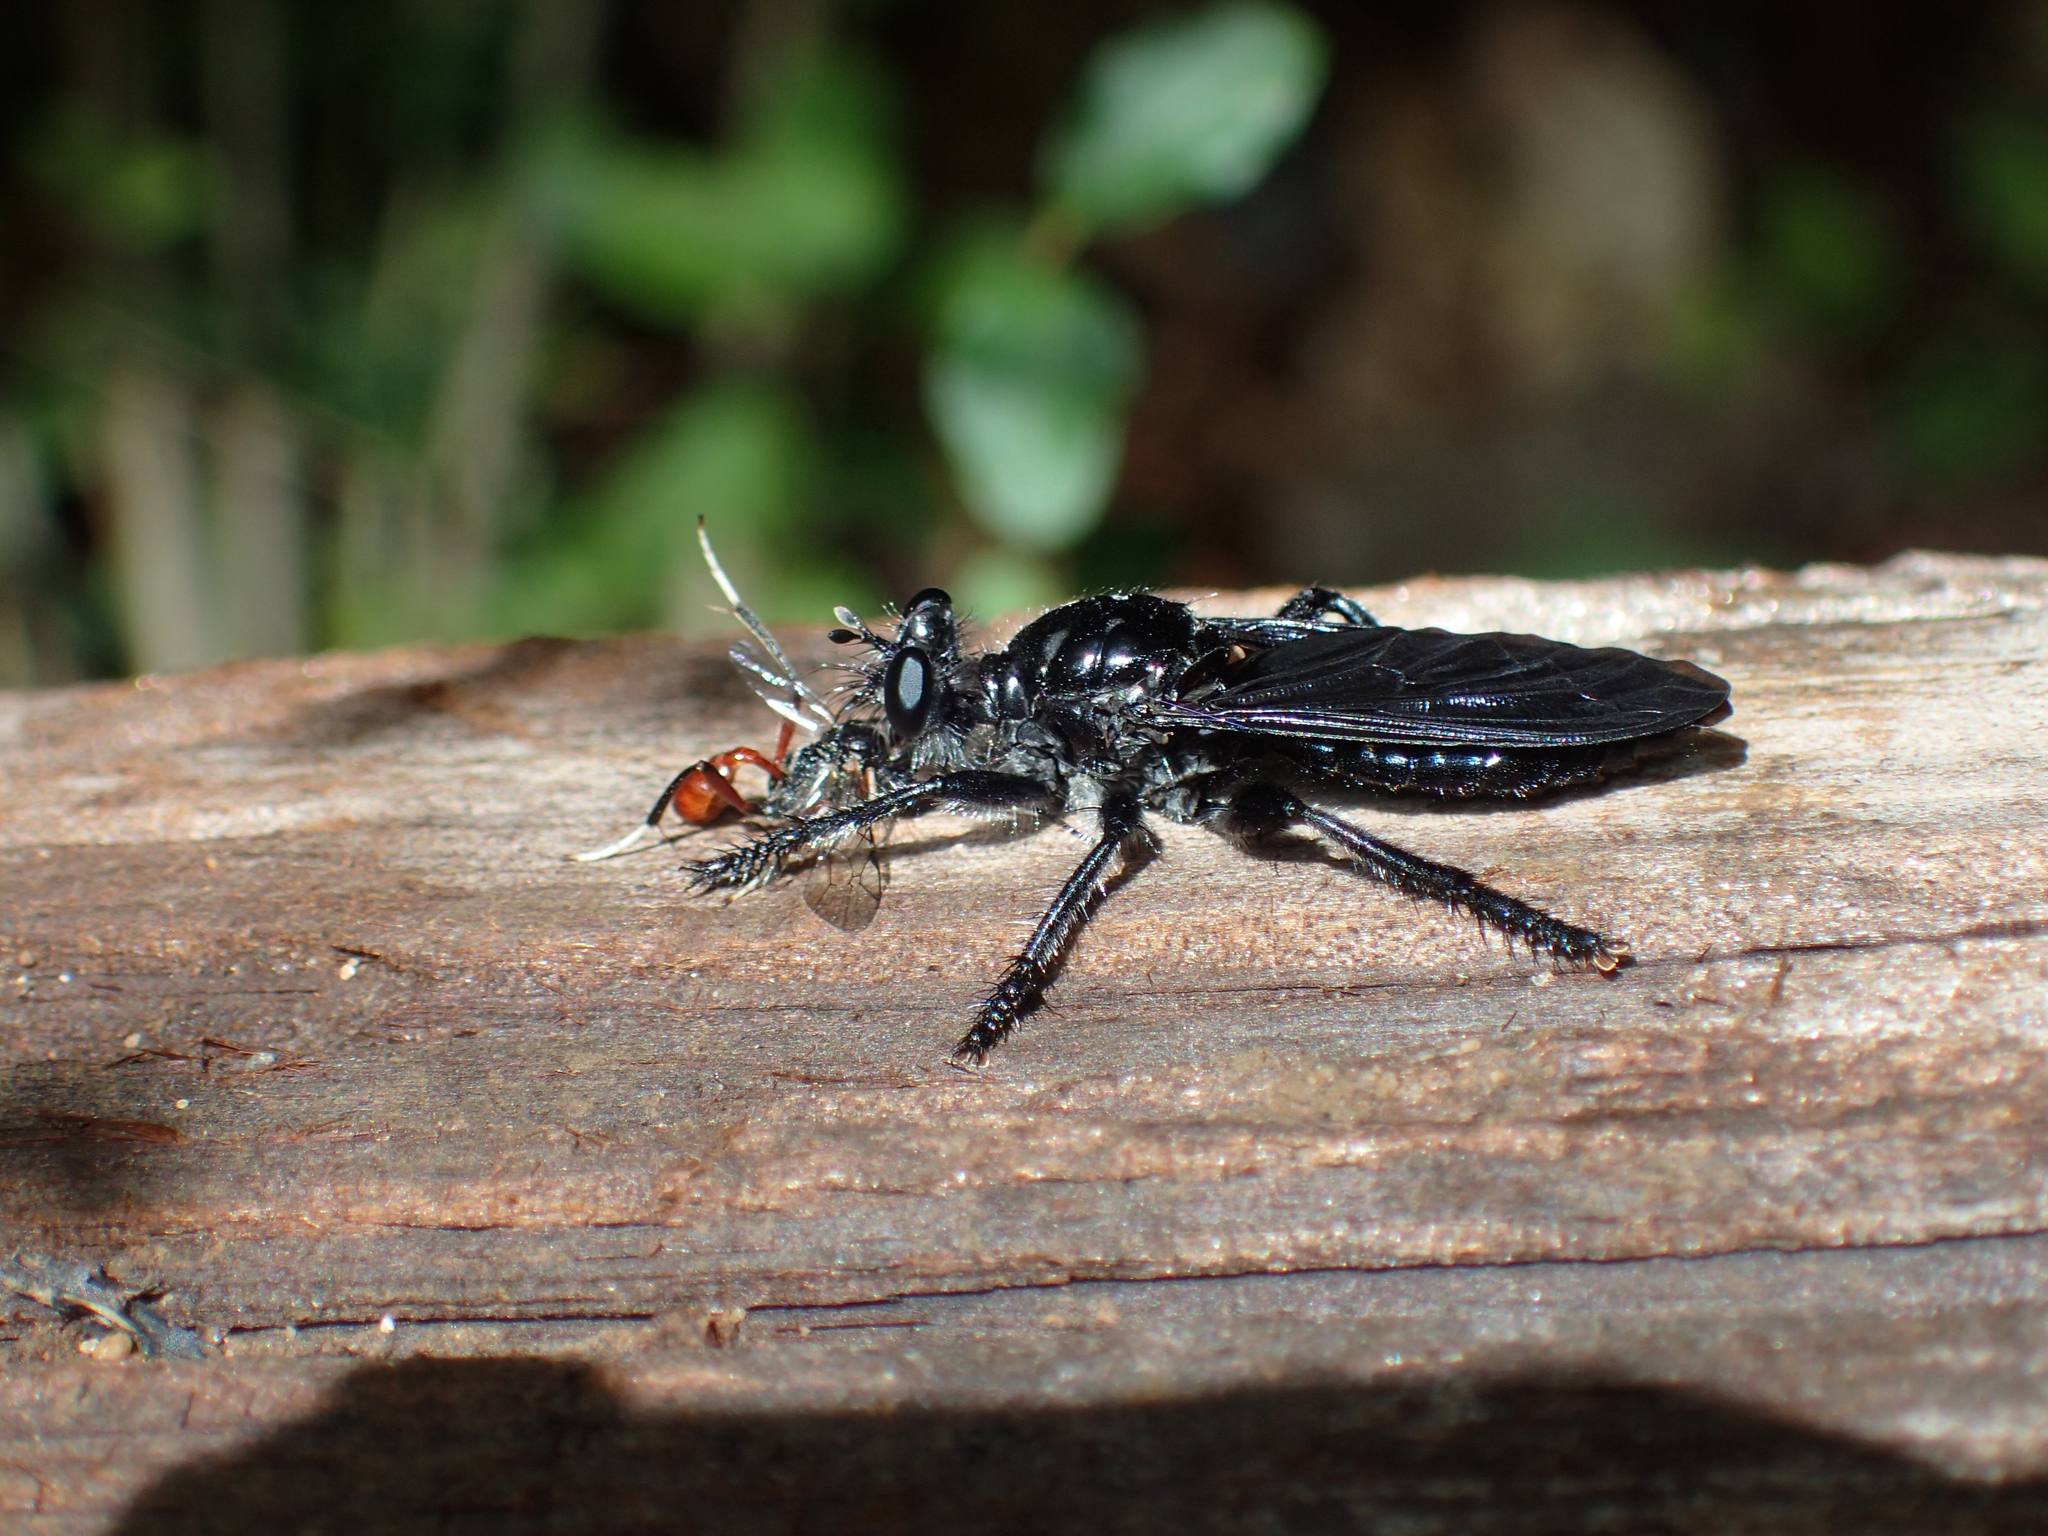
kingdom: Animalia
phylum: Arthropoda
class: Insecta
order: Diptera
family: Asilidae
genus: Pogonosoma
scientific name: Pogonosoma dorsatum
